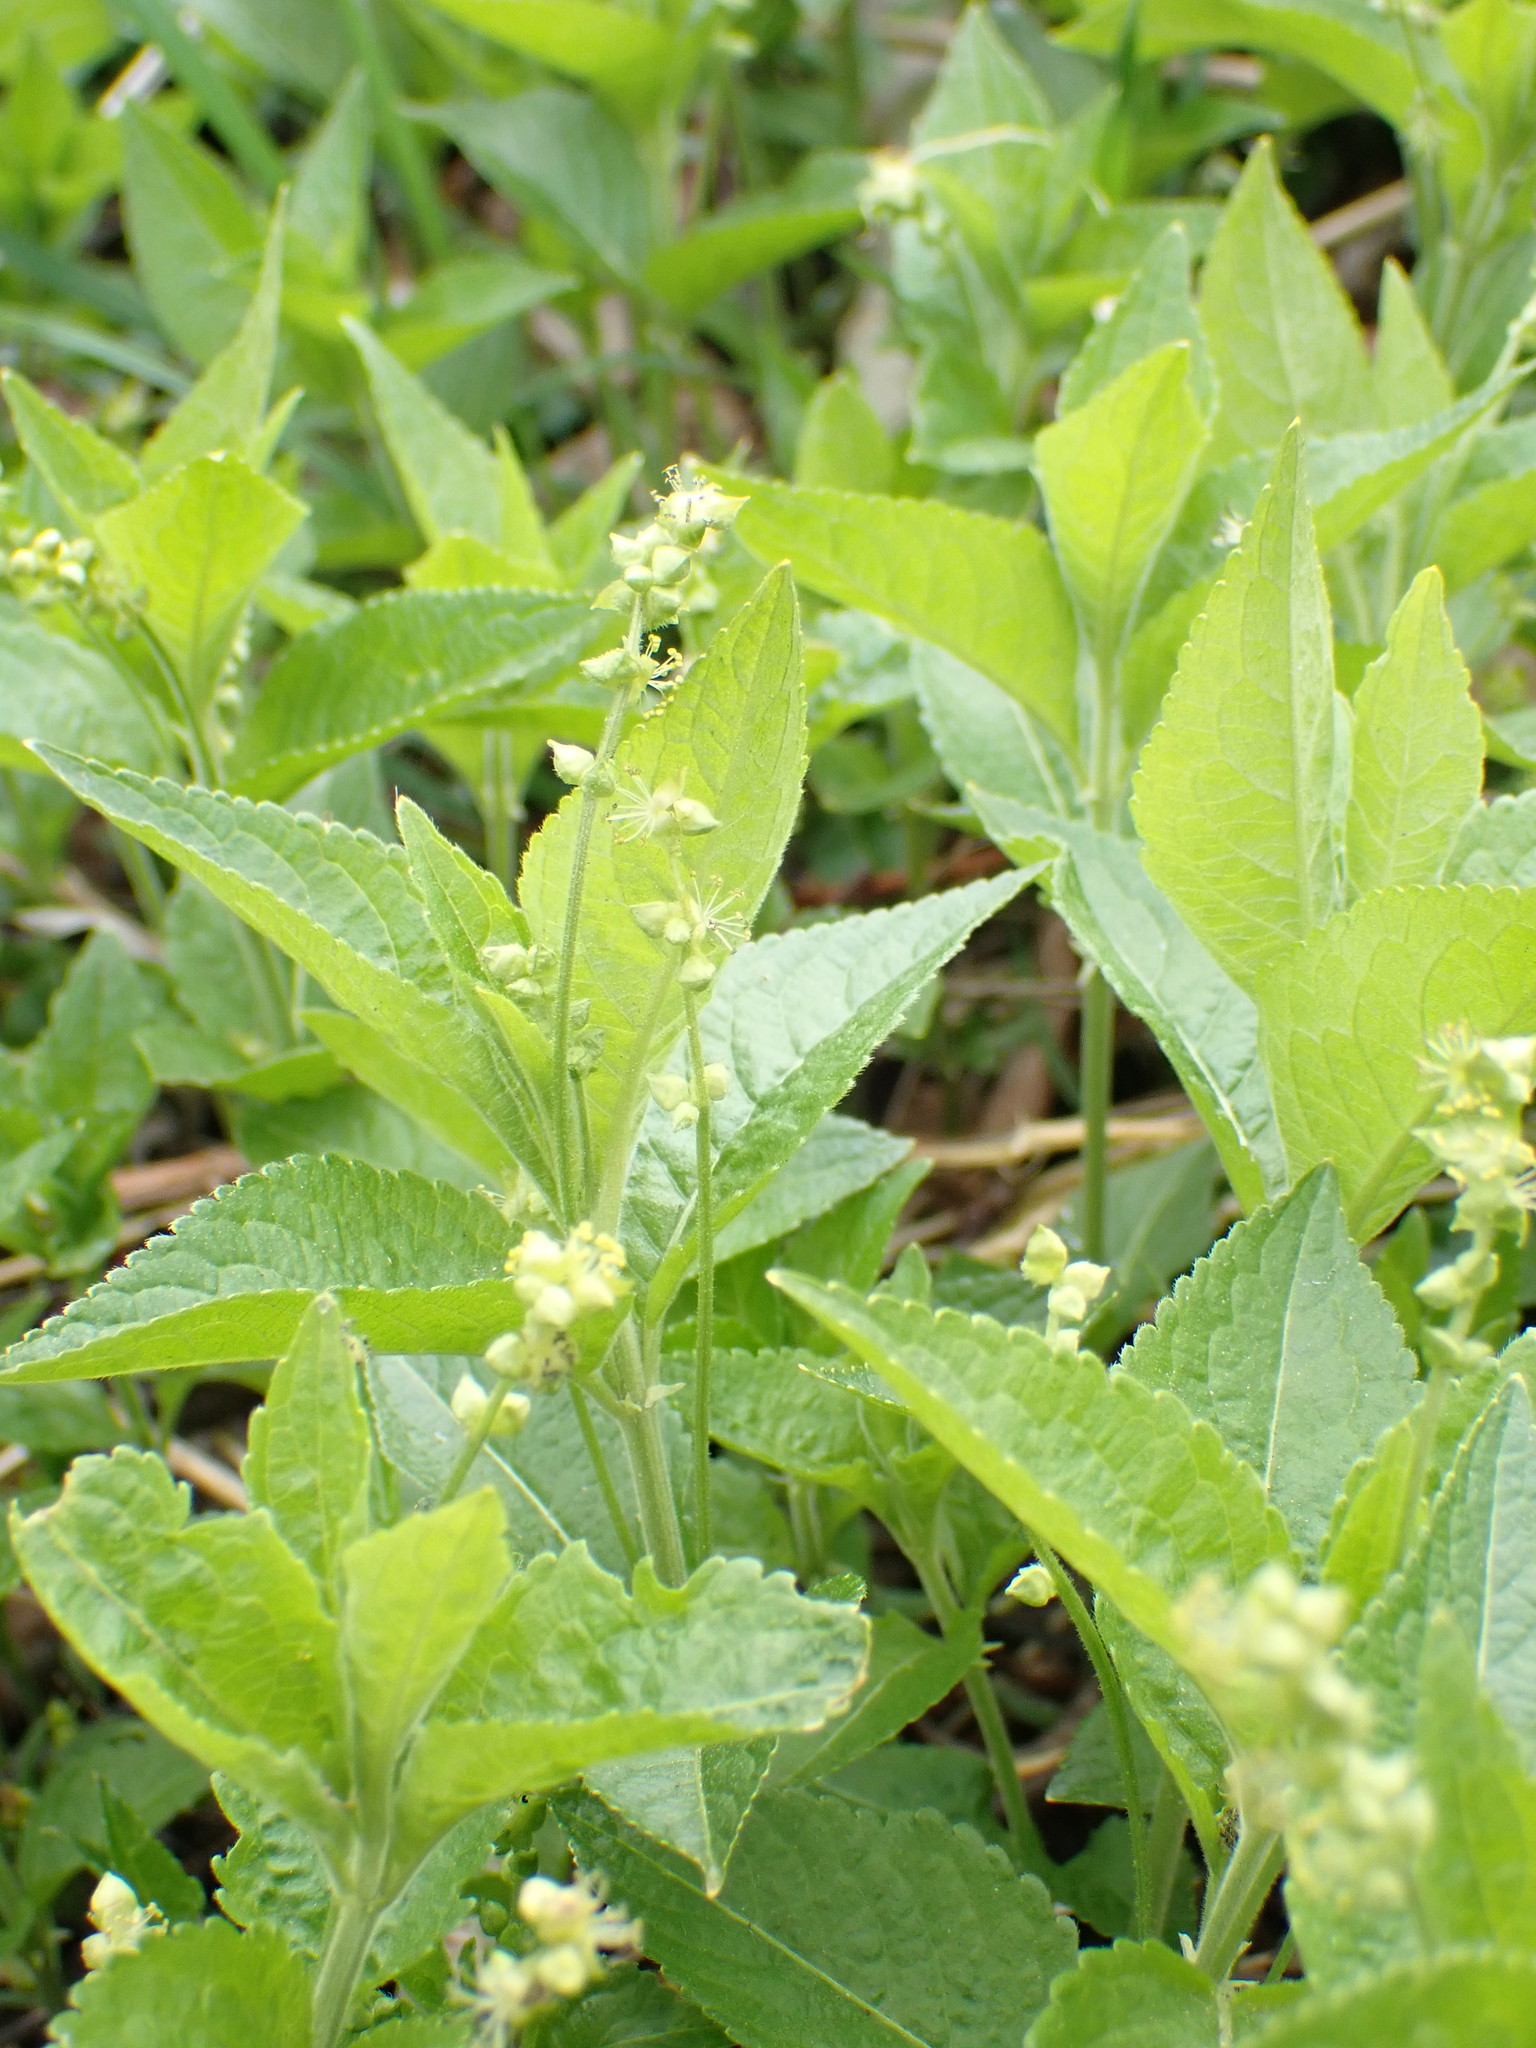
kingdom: Plantae
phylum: Tracheophyta
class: Magnoliopsida
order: Malpighiales
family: Euphorbiaceae
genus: Mercurialis
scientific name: Mercurialis perennis
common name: Dog mercury
